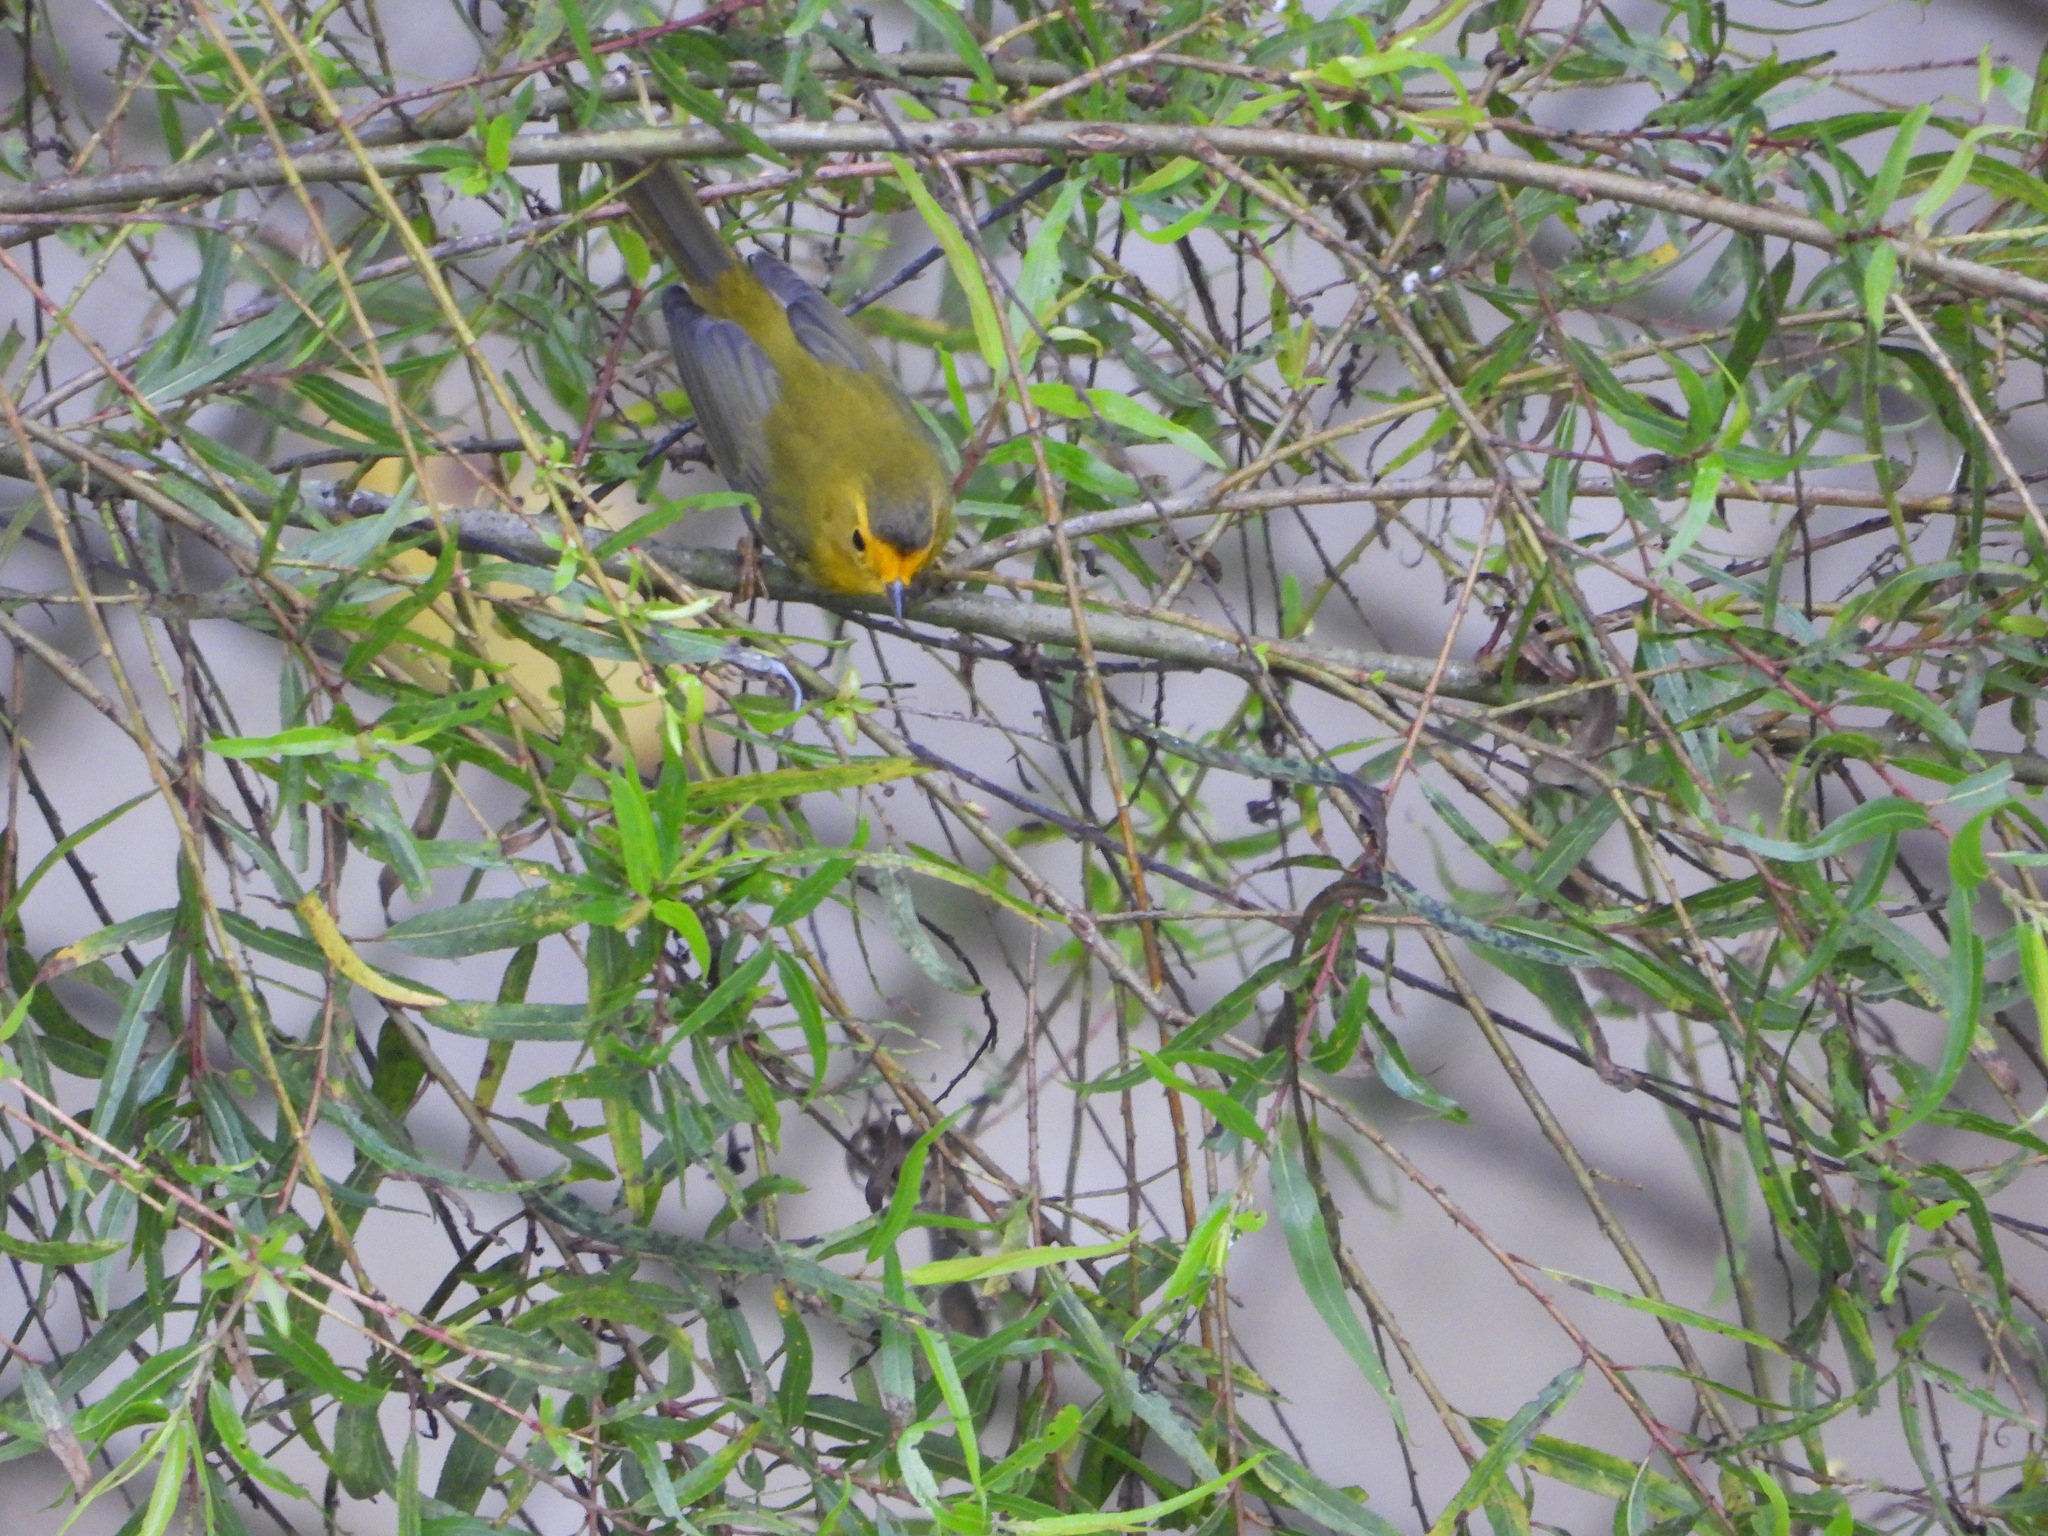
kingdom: Animalia
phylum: Chordata
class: Aves
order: Passeriformes
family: Parulidae
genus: Cardellina
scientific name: Cardellina pusilla
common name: Wilson's warbler
